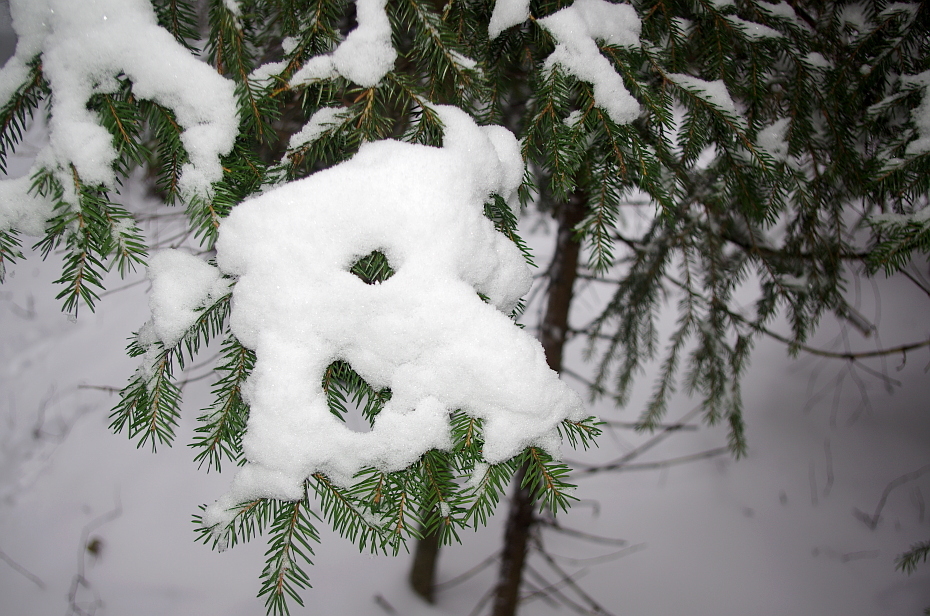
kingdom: Plantae
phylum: Tracheophyta
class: Pinopsida
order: Pinales
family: Pinaceae
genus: Picea
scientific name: Picea abies
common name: Norway spruce
